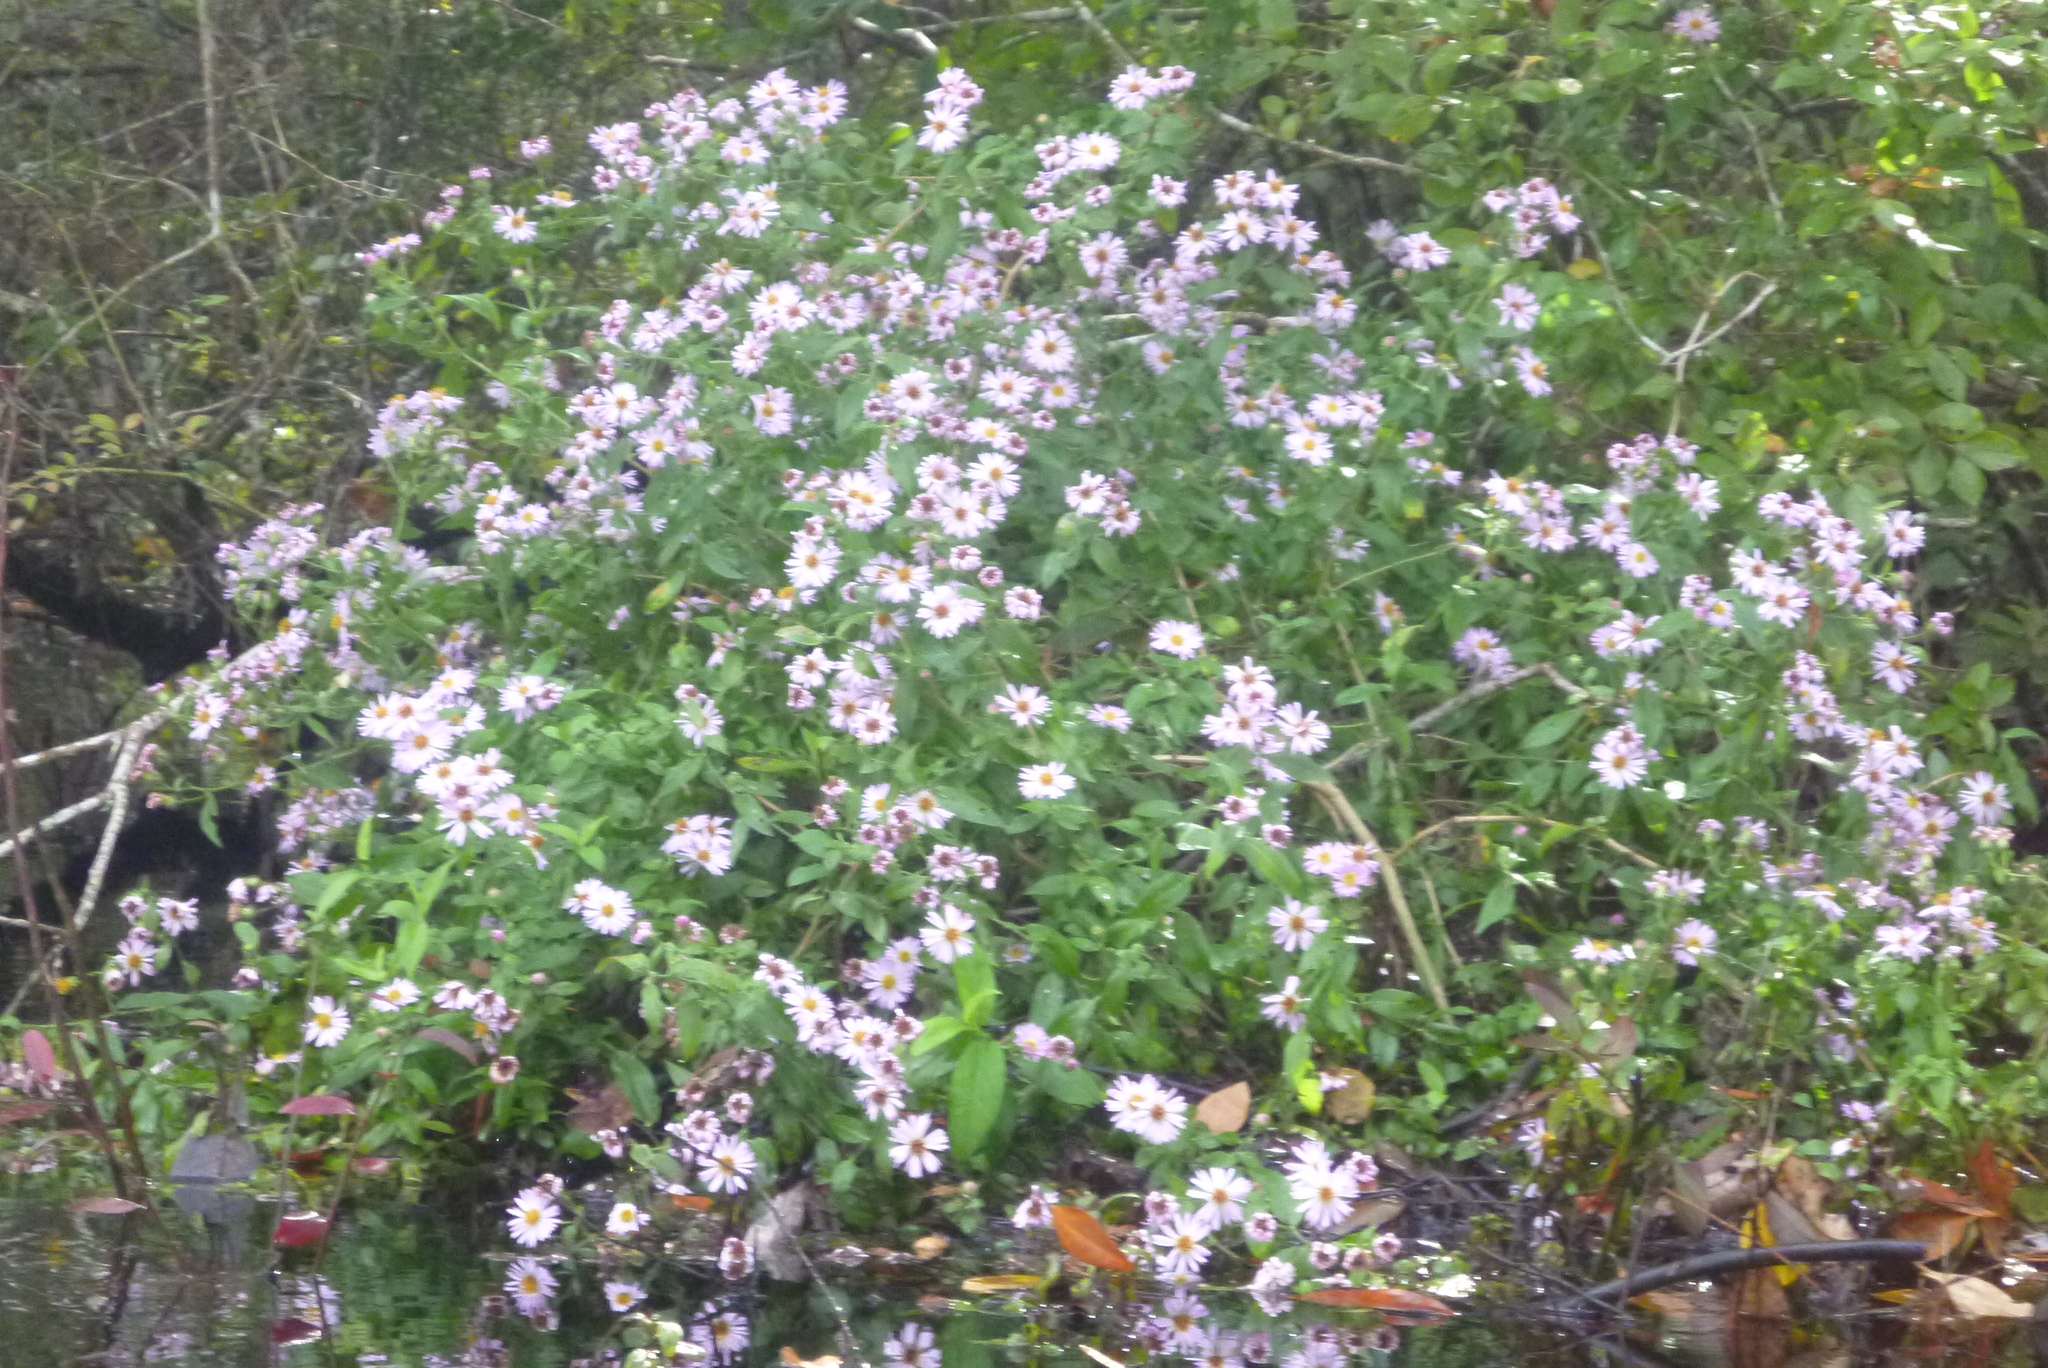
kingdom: Plantae
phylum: Tracheophyta
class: Magnoliopsida
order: Asterales
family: Asteraceae
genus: Ampelaster
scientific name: Ampelaster carolinianus
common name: Climbing aster
